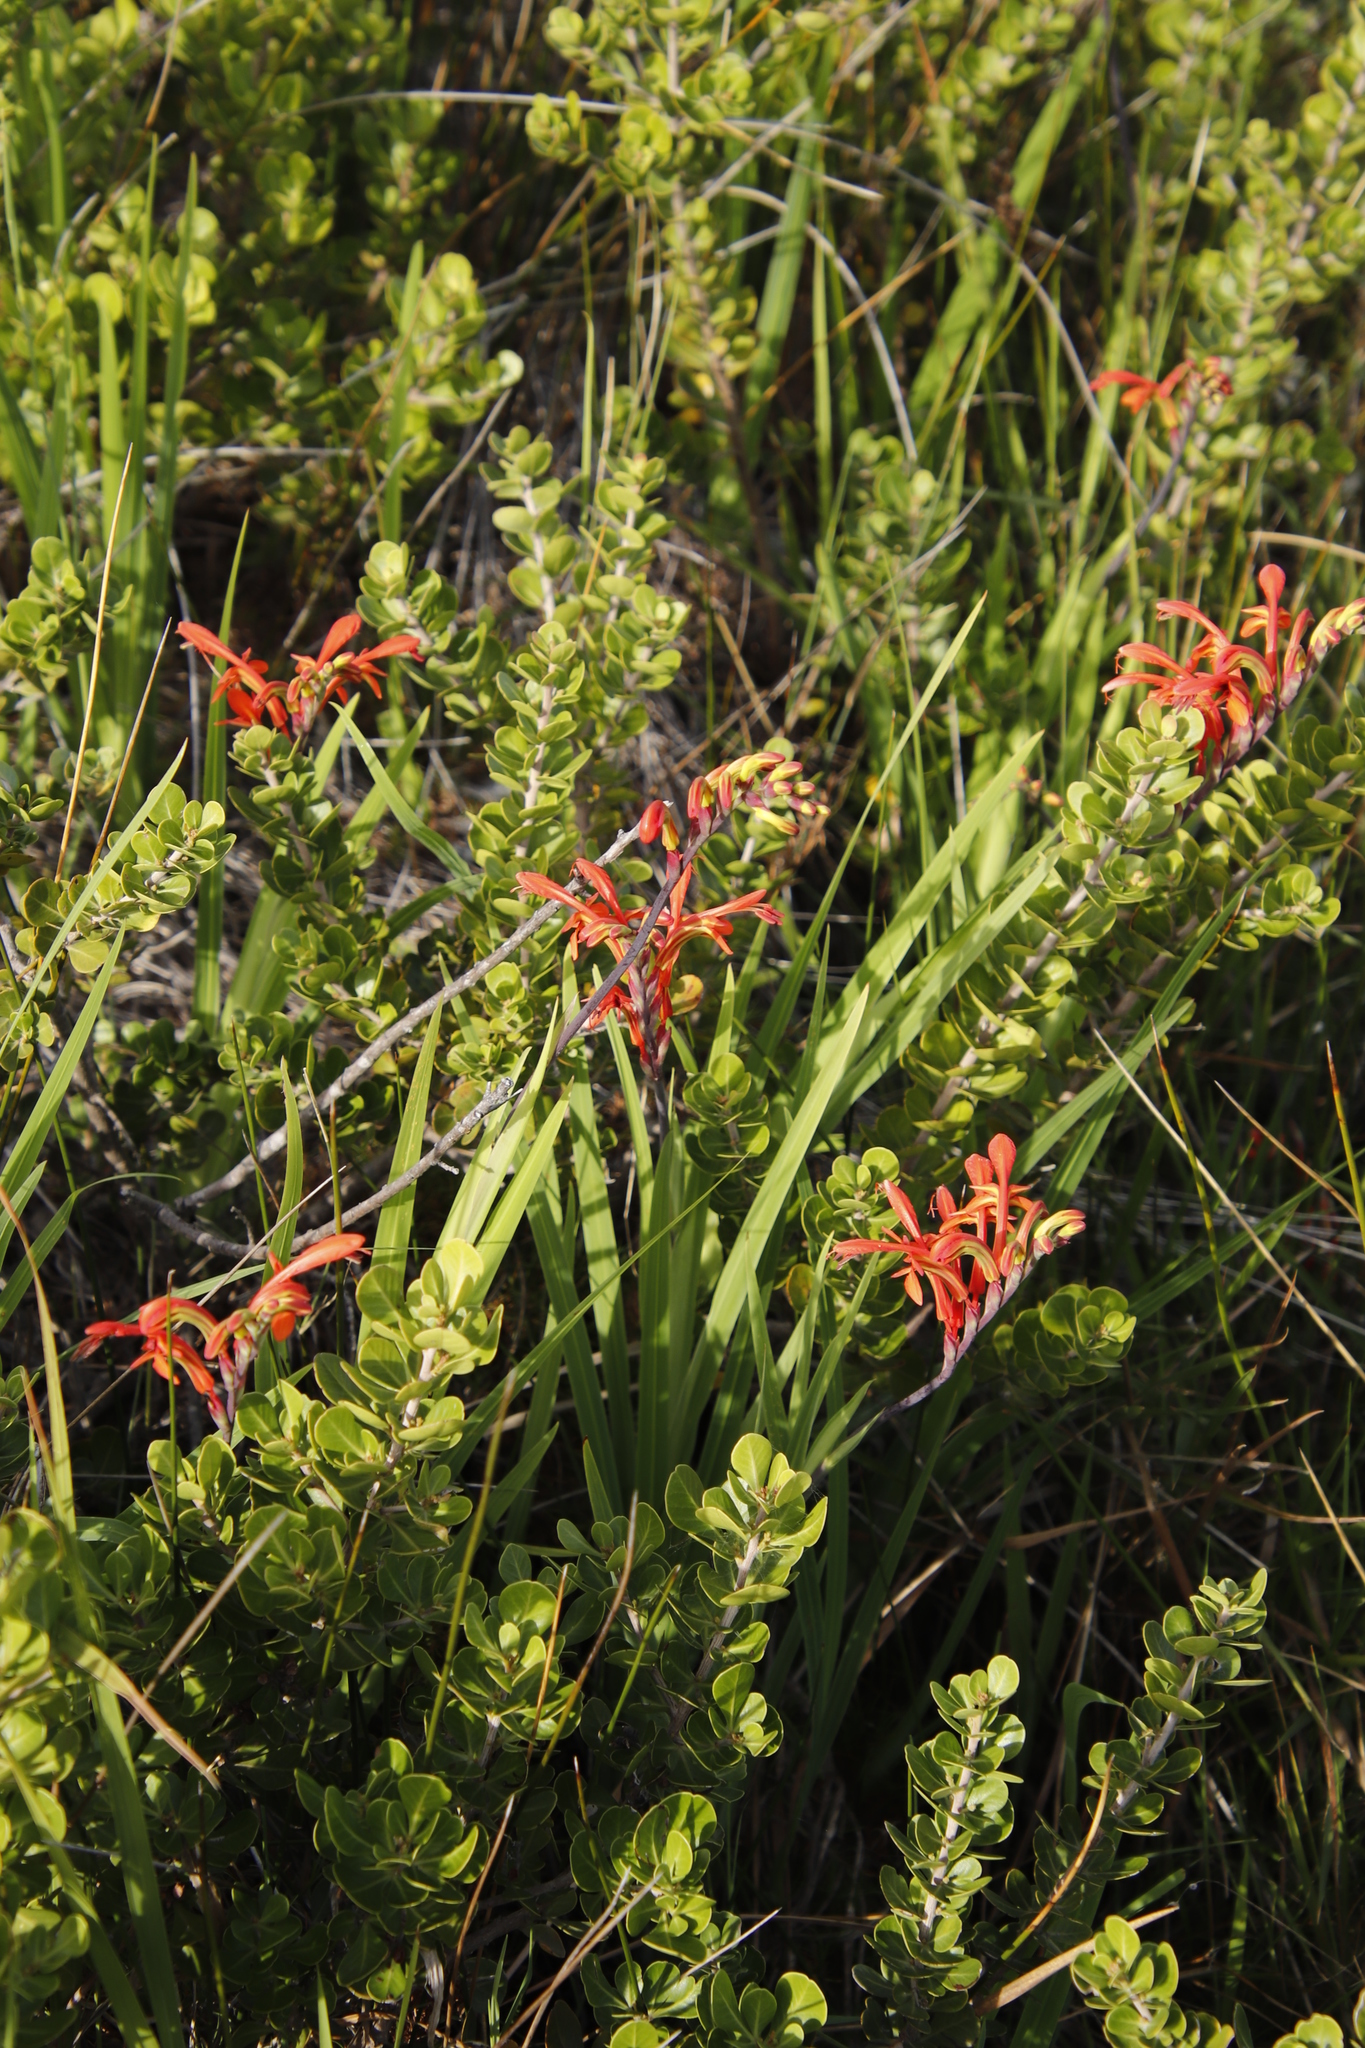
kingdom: Plantae
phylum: Tracheophyta
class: Liliopsida
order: Asparagales
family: Iridaceae
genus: Chasmanthe
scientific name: Chasmanthe aethiopica
